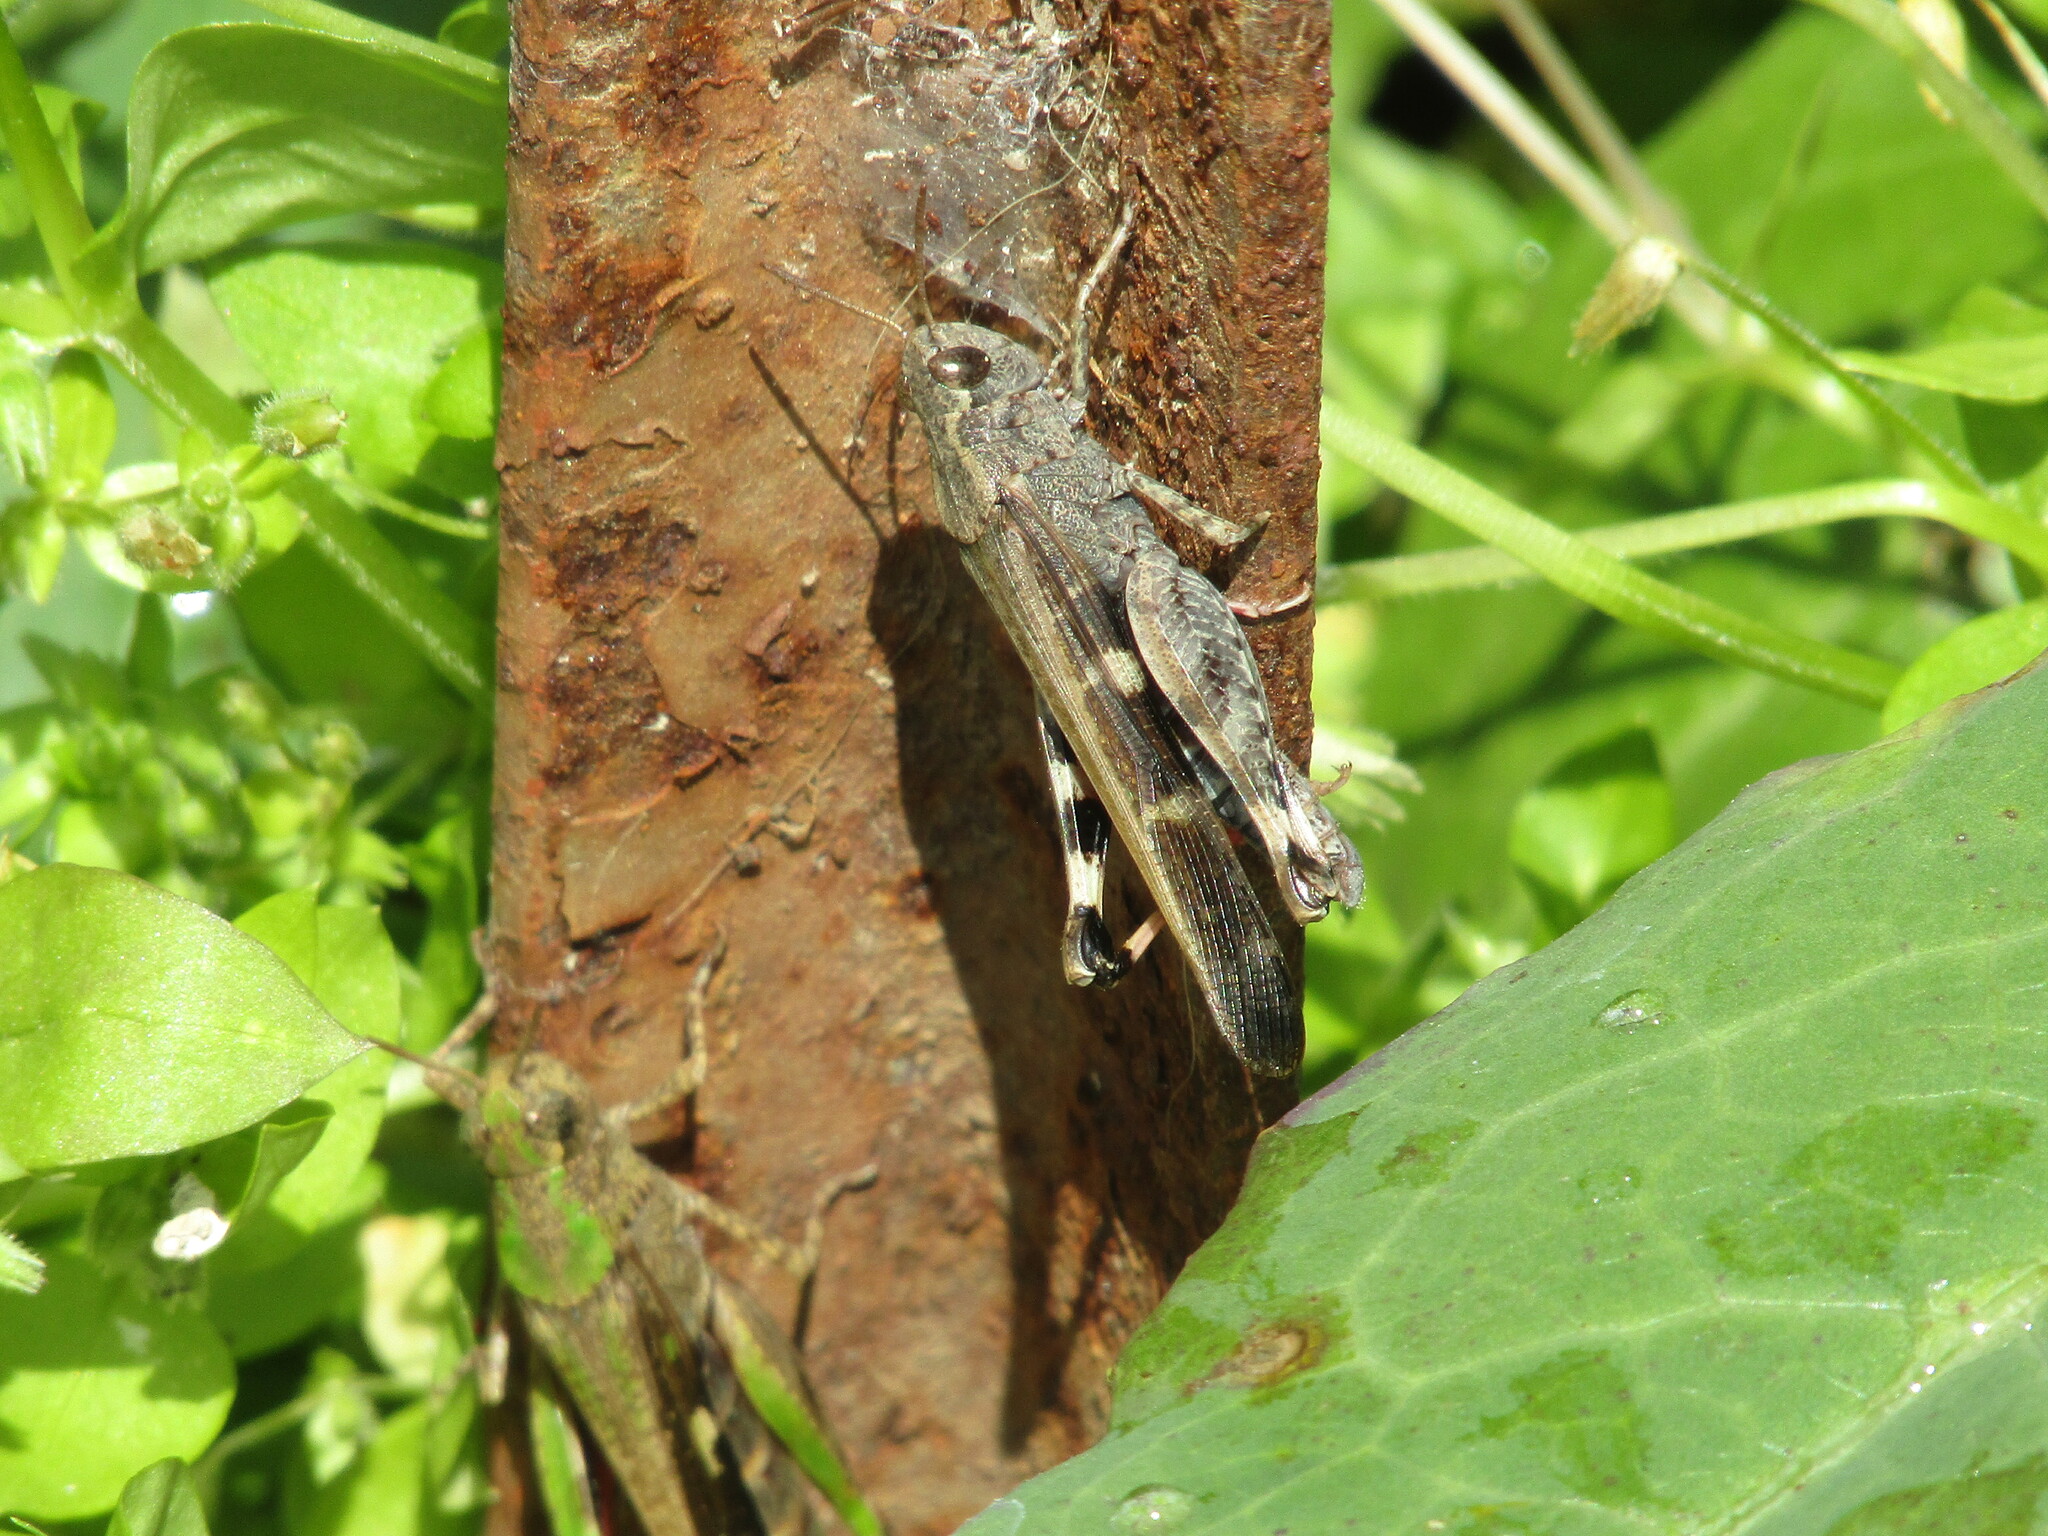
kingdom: Animalia
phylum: Arthropoda
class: Insecta
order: Orthoptera
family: Acrididae
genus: Aiolopus
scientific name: Aiolopus strepens
